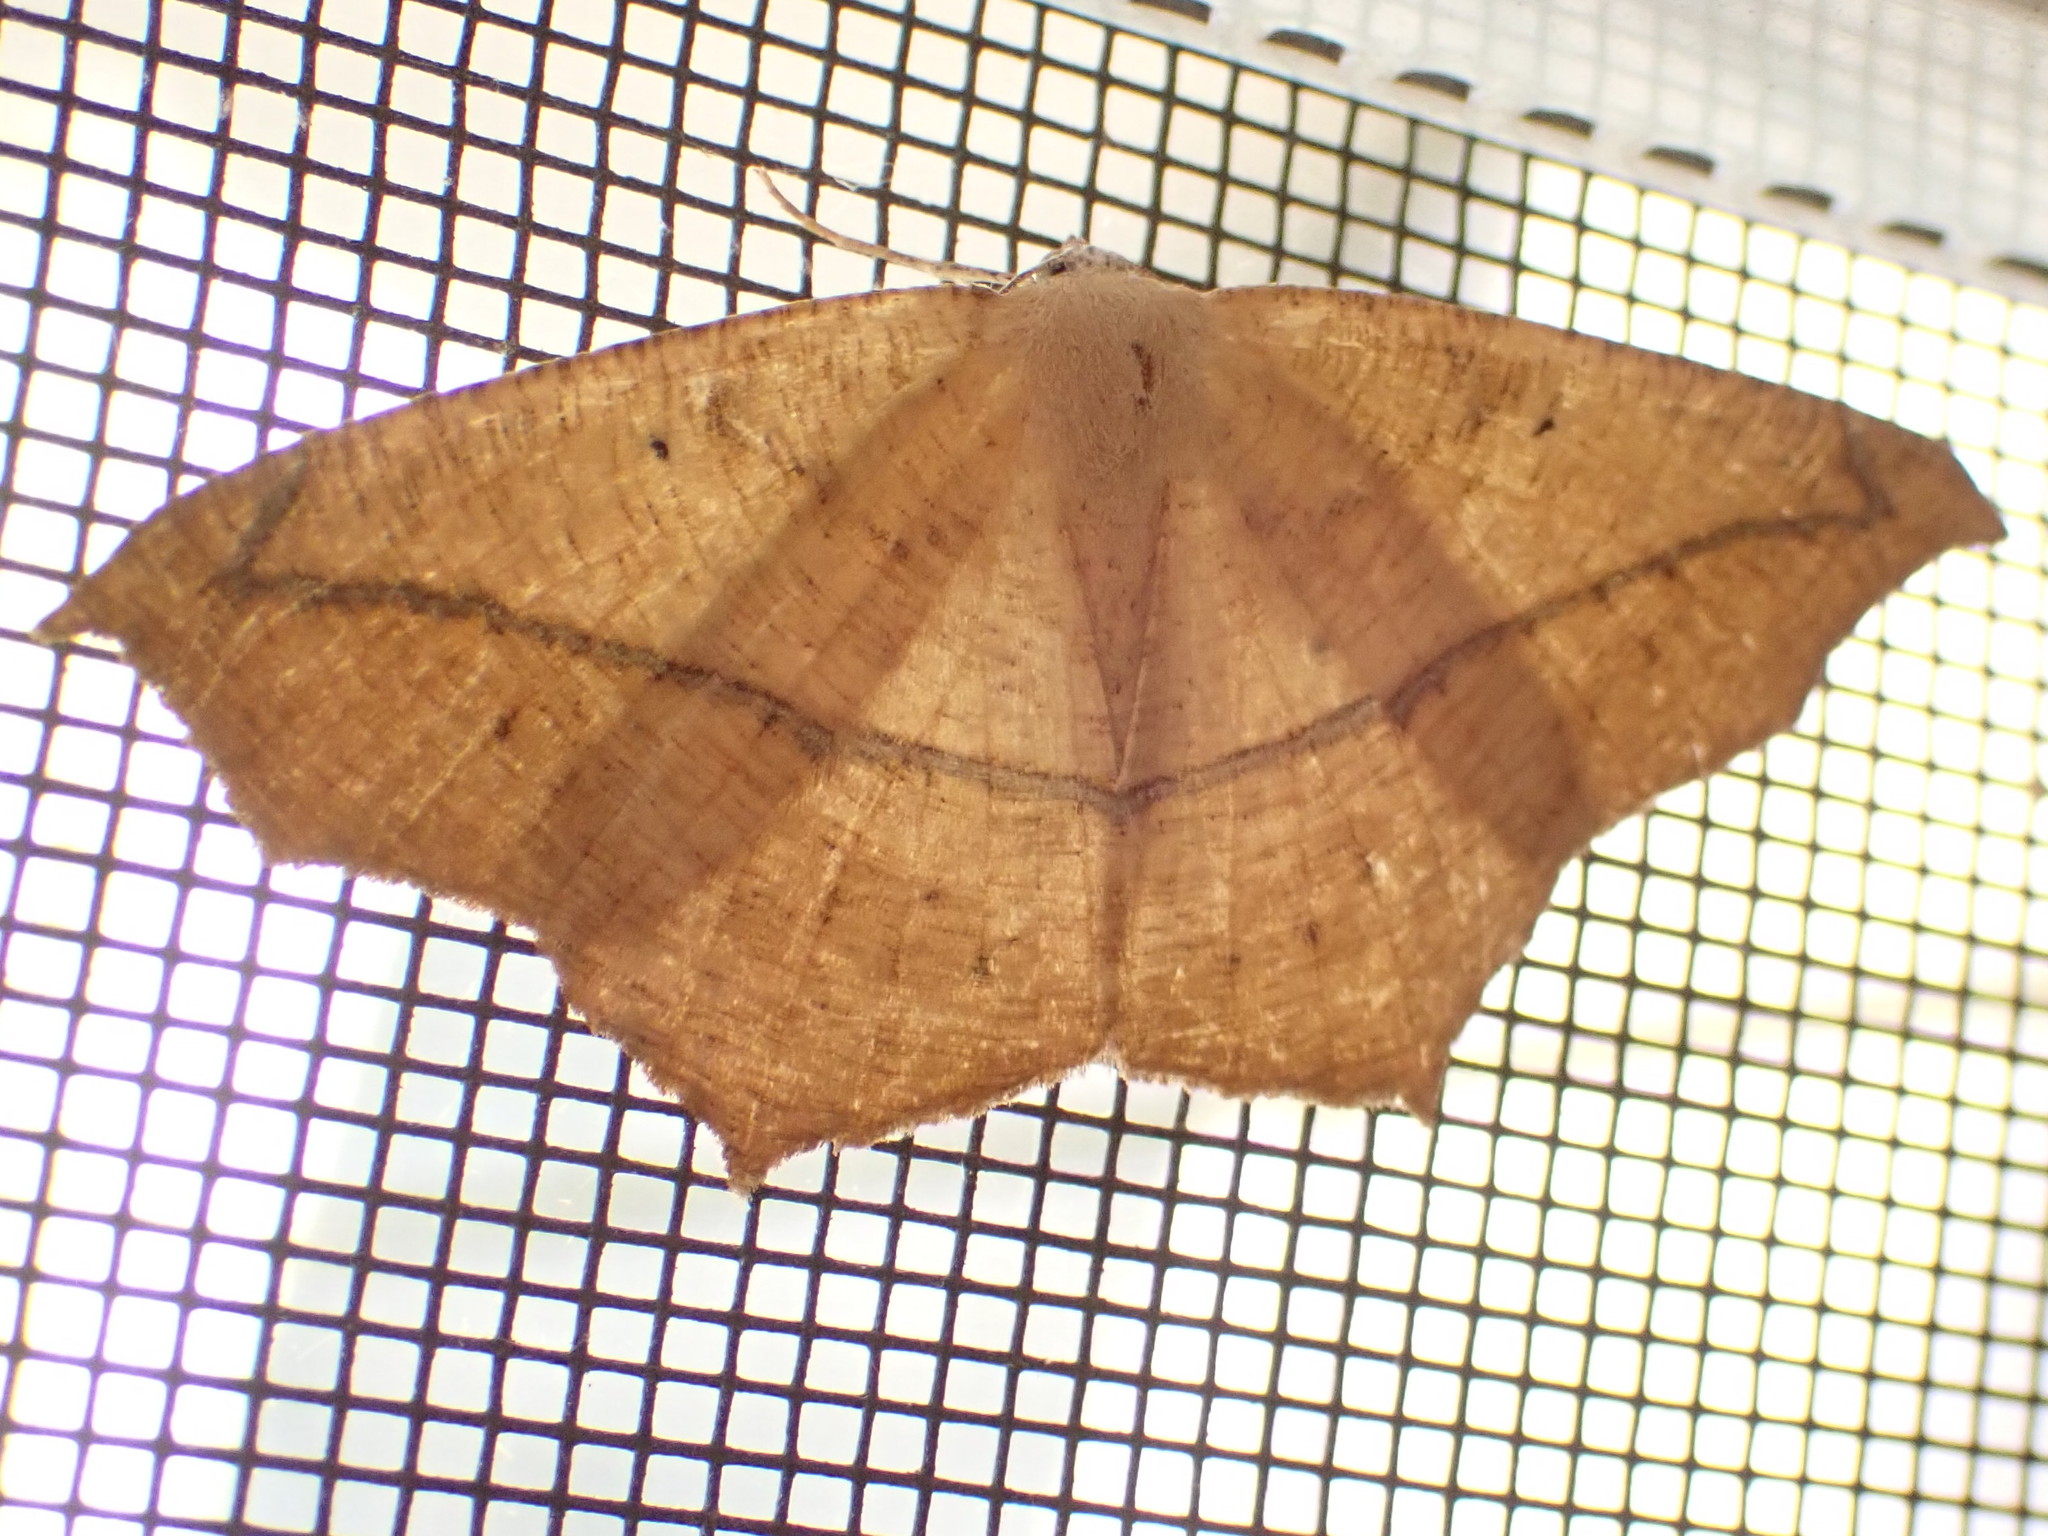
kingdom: Animalia
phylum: Arthropoda
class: Insecta
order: Lepidoptera
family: Geometridae
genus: Prochoerodes
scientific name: Prochoerodes lineola
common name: Large maple spanworm
